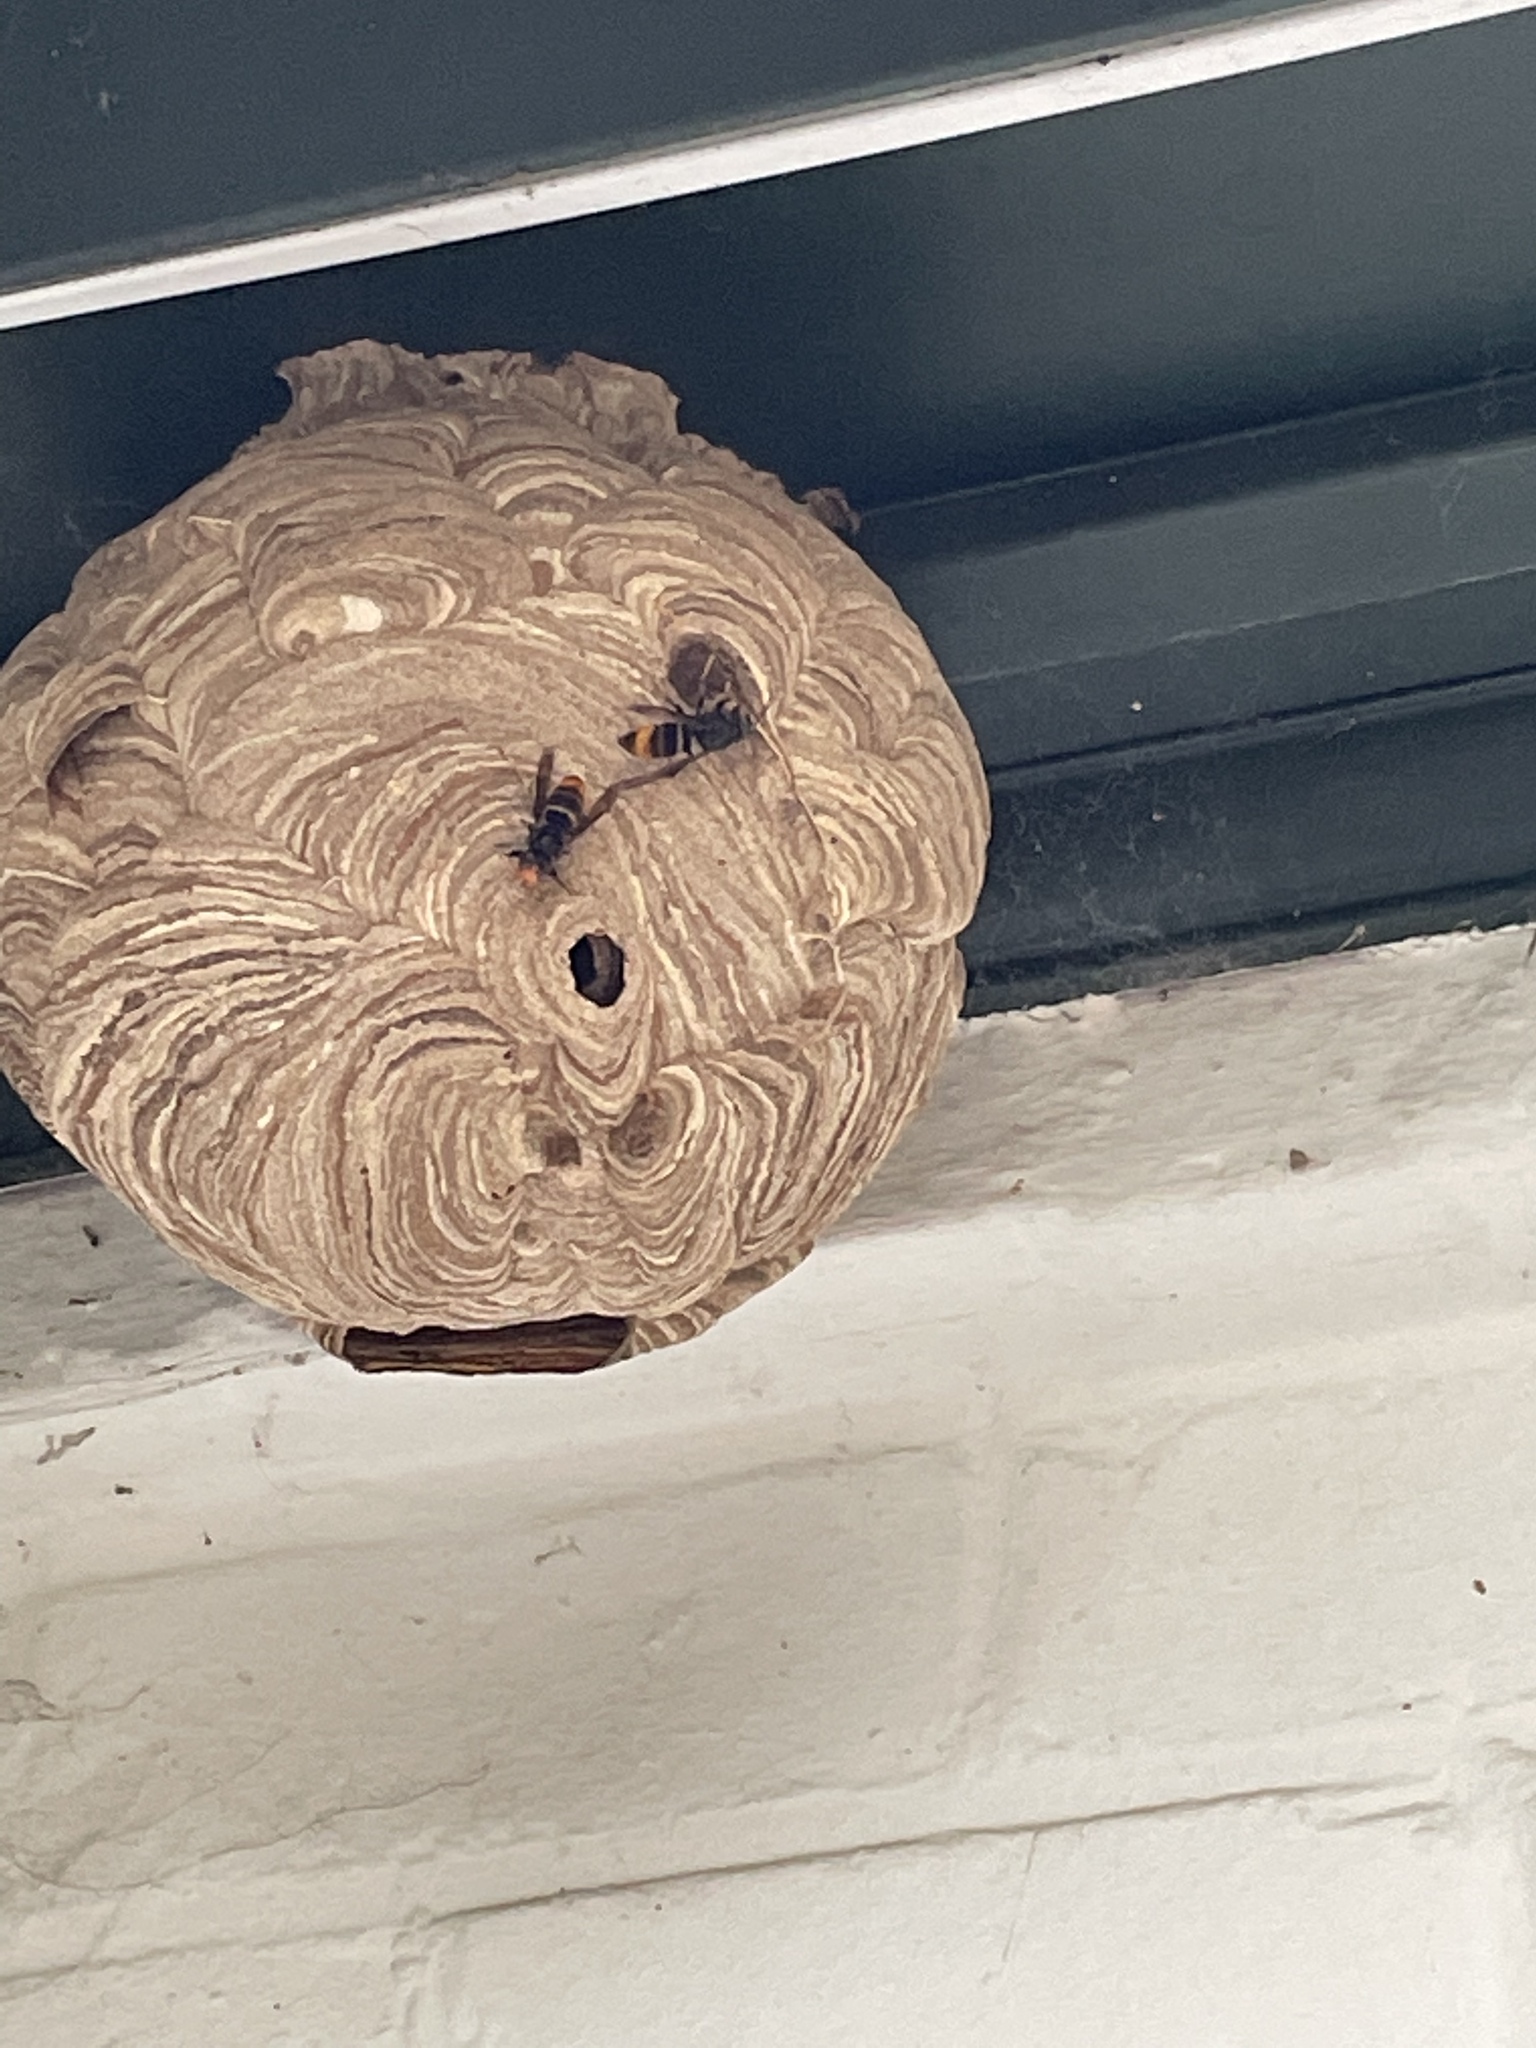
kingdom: Animalia
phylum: Arthropoda
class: Insecta
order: Hymenoptera
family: Vespidae
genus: Vespa
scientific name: Vespa velutina
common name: Asian hornet
